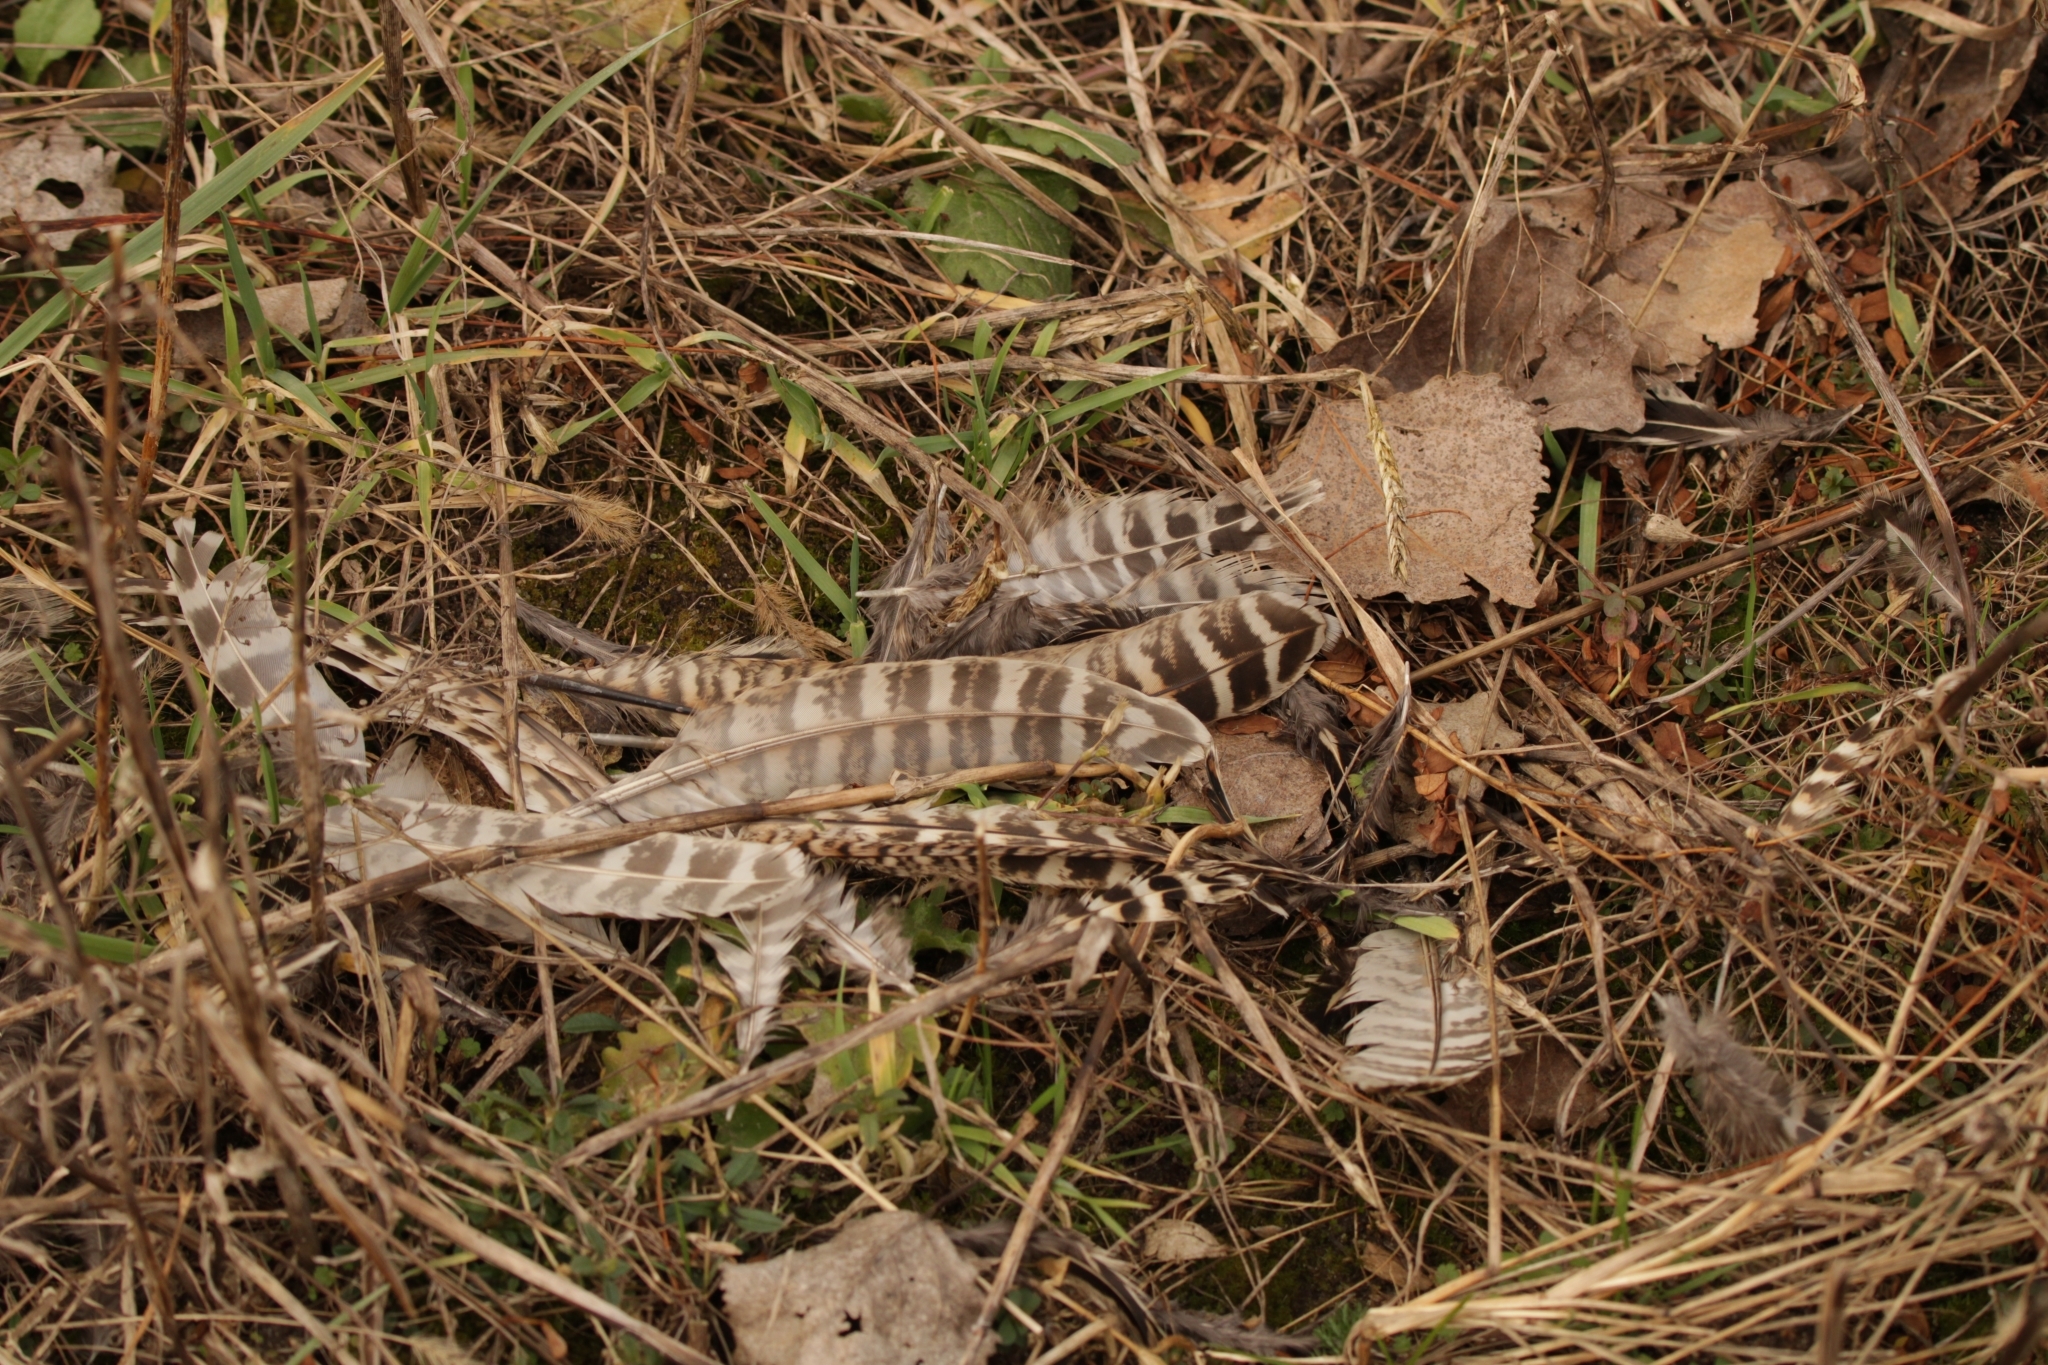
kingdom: Animalia
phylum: Chordata
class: Aves
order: Galliformes
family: Phasianidae
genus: Phasianus
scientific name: Phasianus colchicus
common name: Common pheasant
